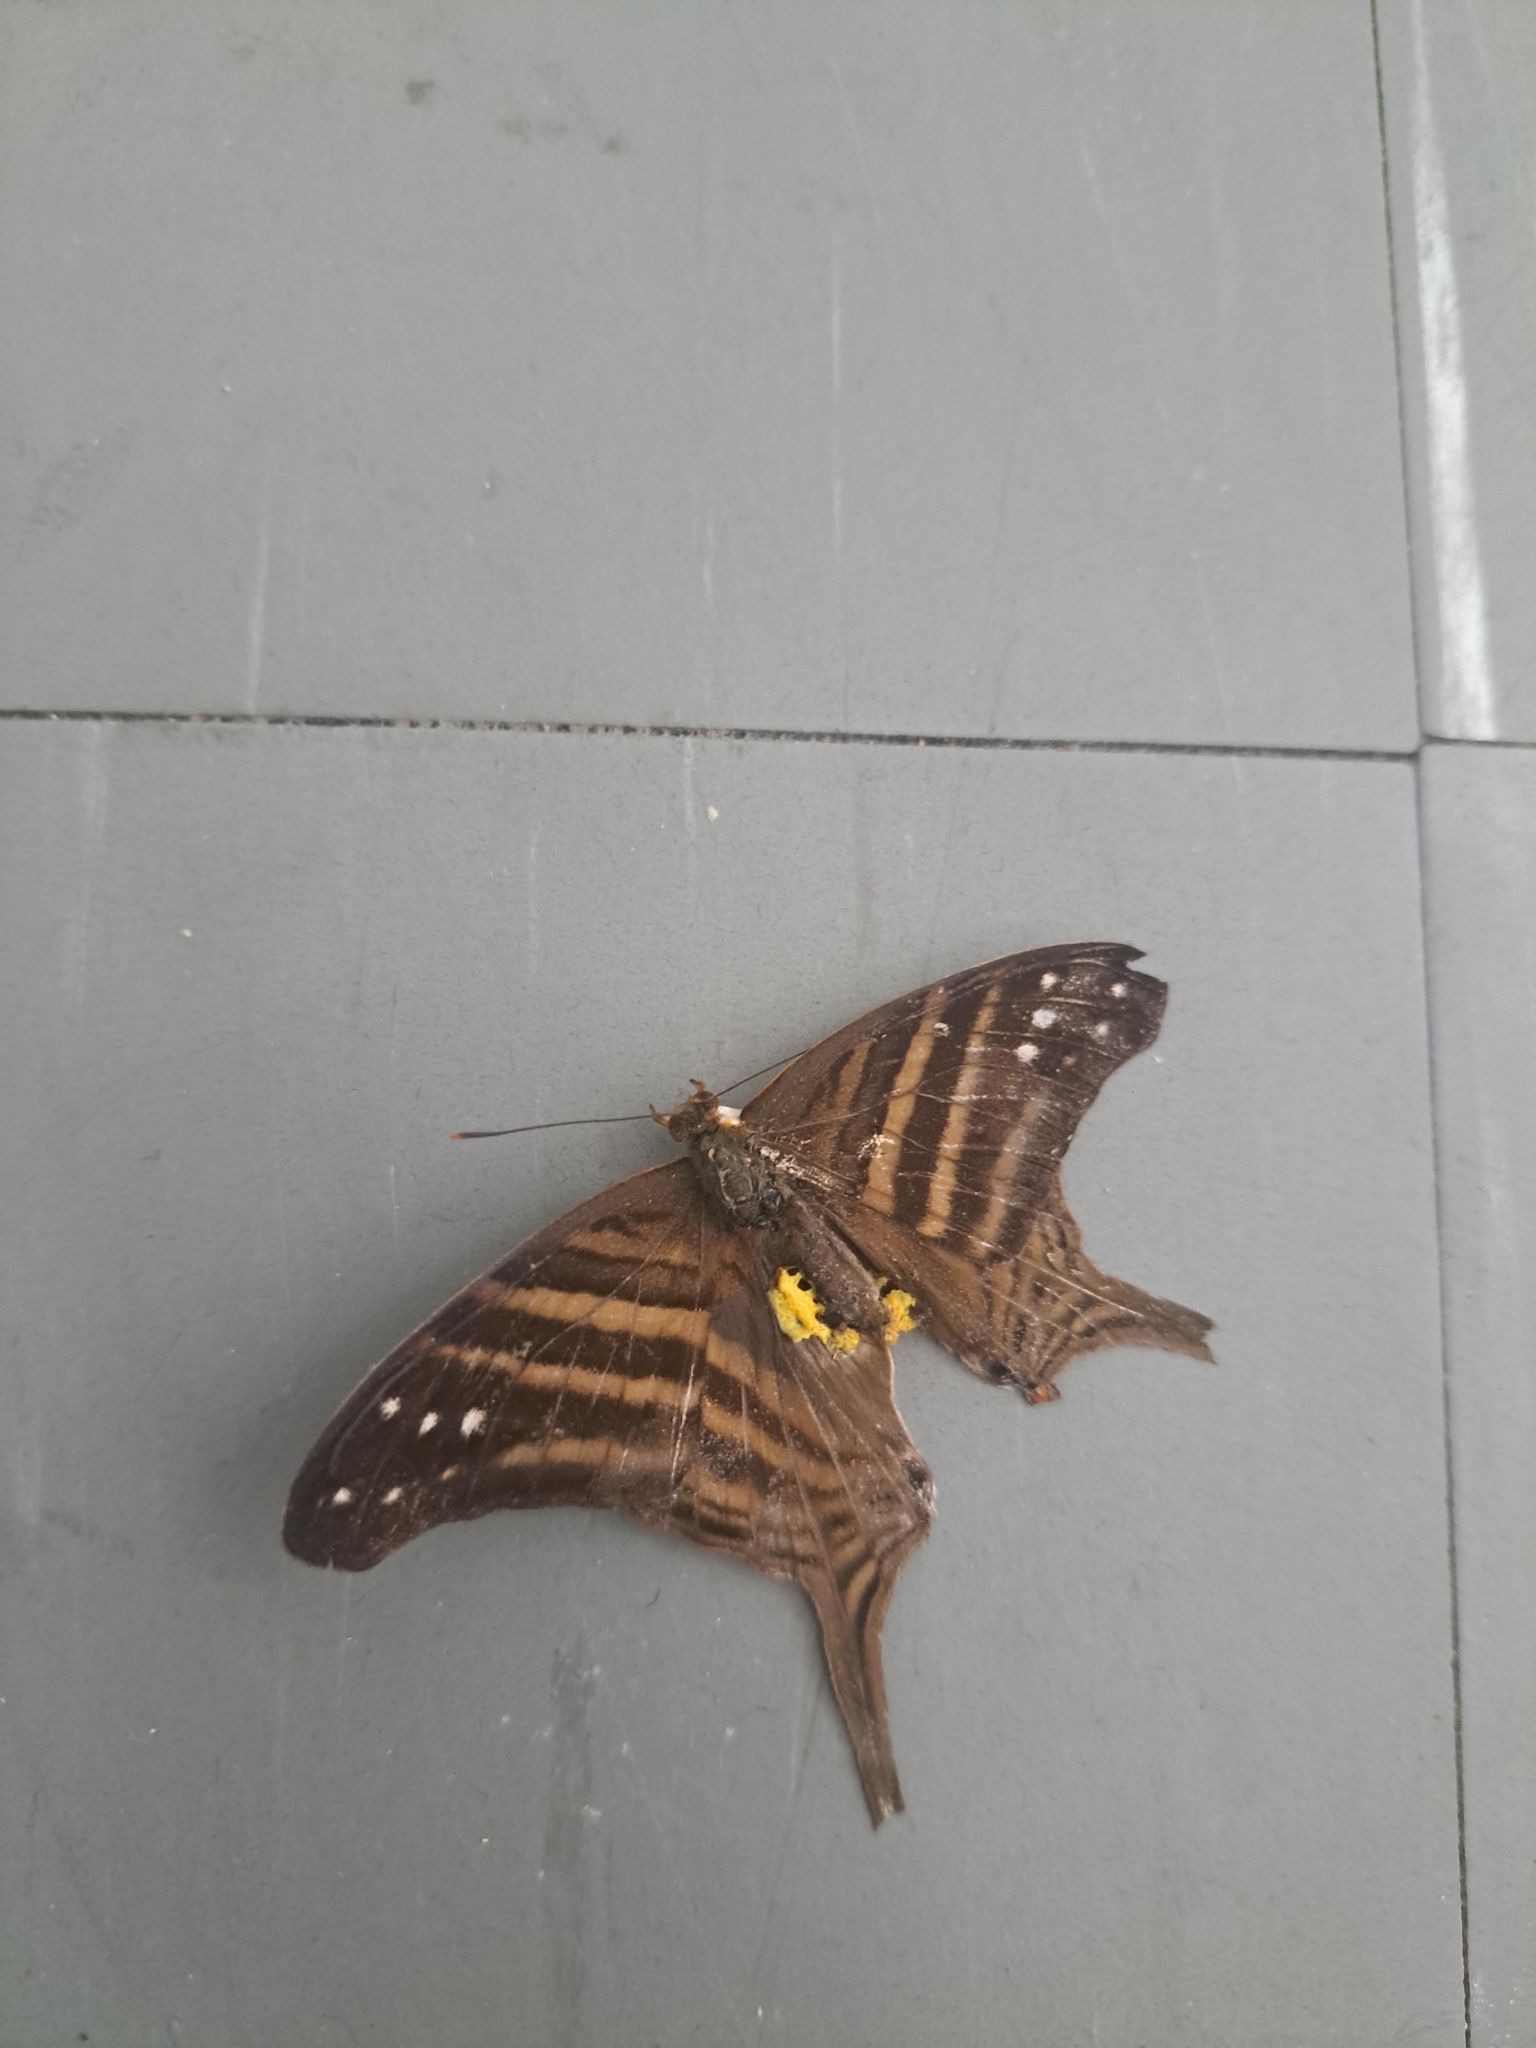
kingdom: Animalia
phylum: Arthropoda
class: Insecta
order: Lepidoptera
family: Nymphalidae
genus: Marpesia
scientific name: Marpesia chiron
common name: Many-banded daggerwing
